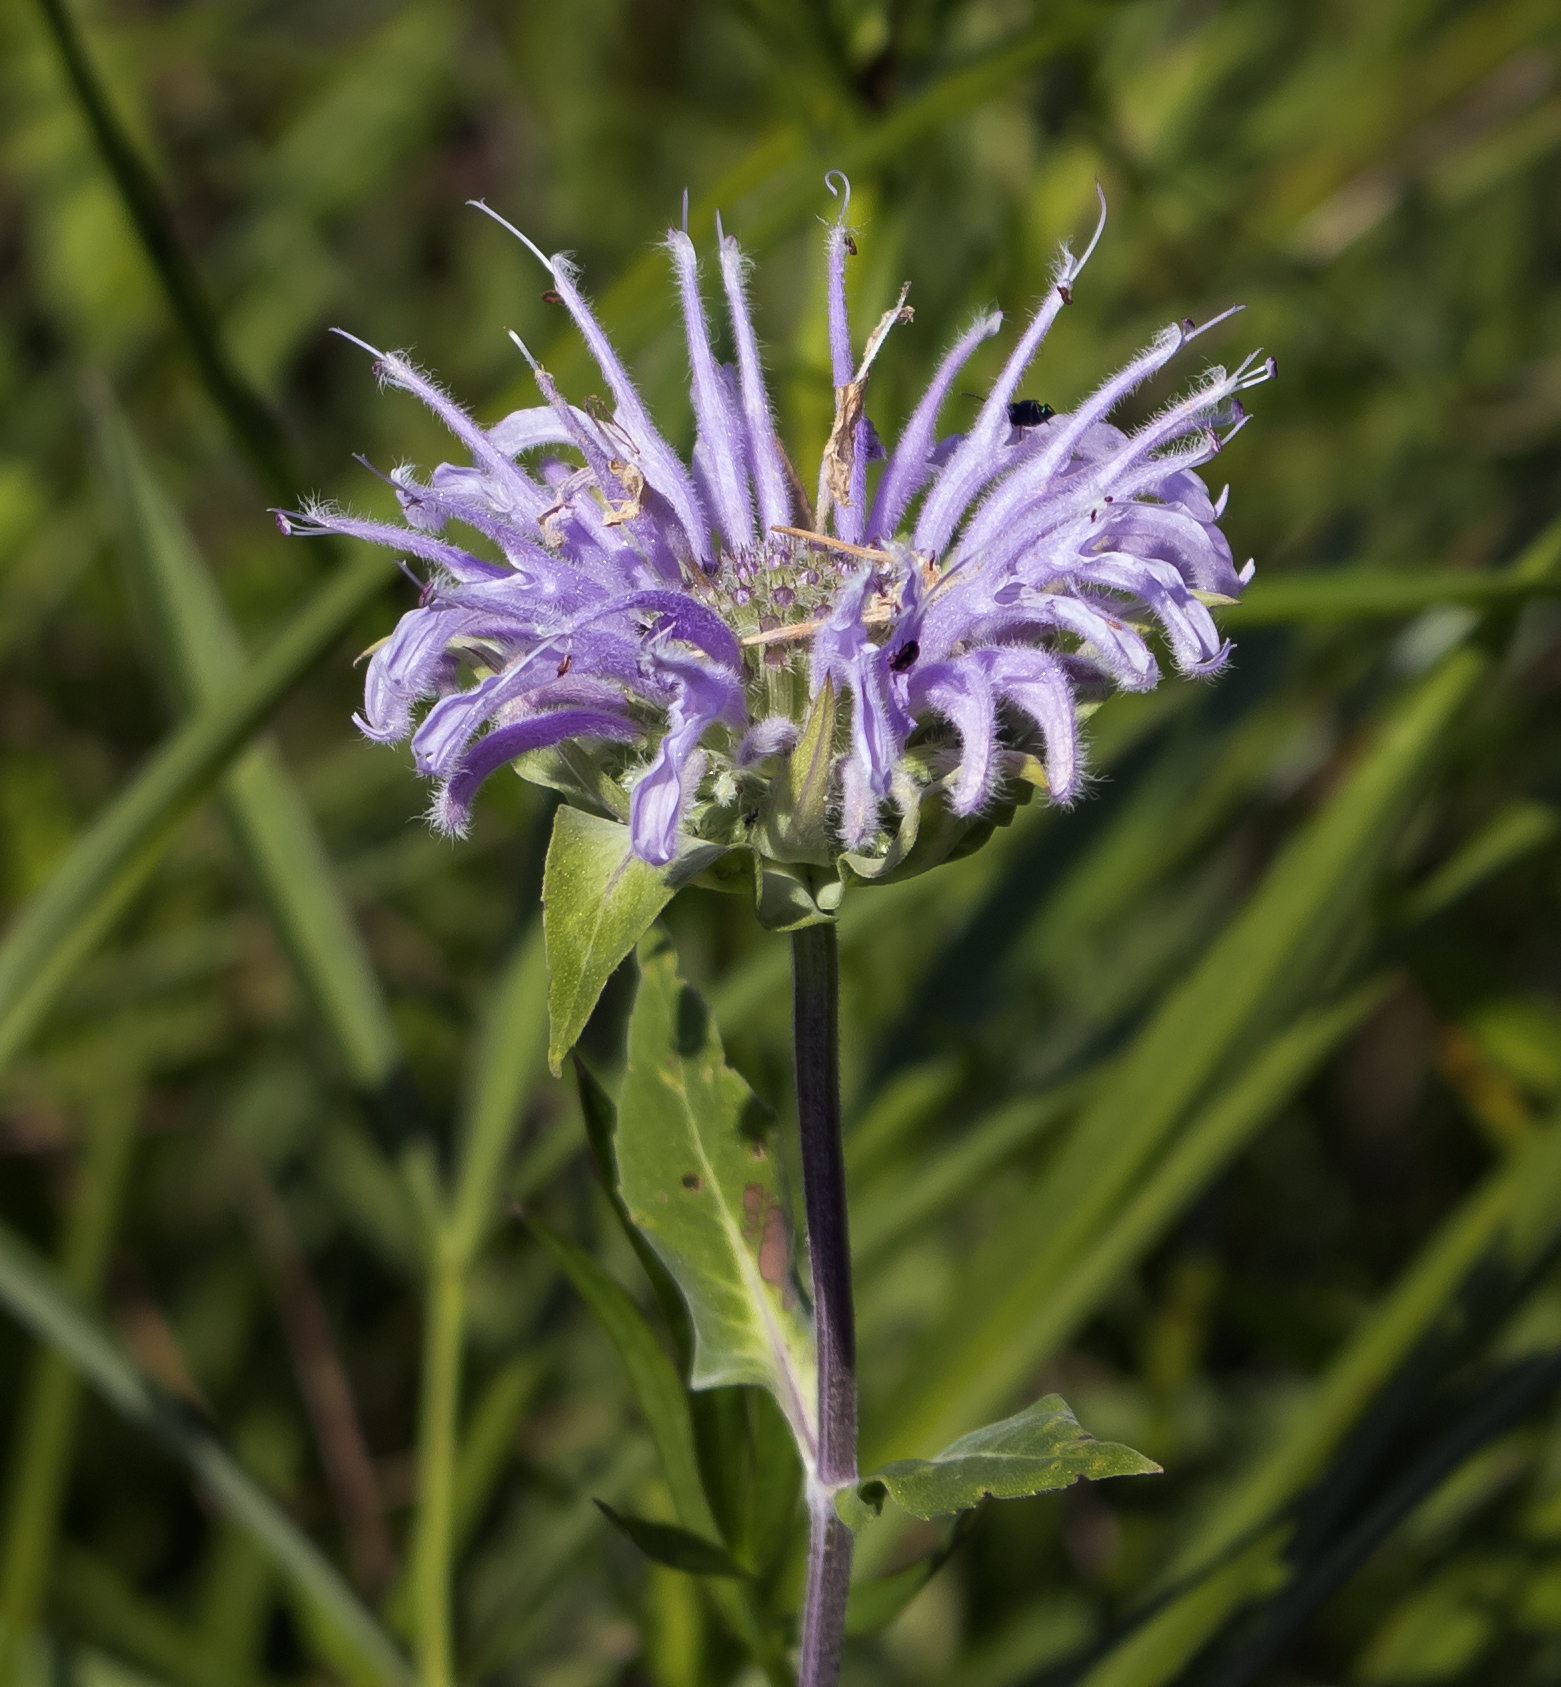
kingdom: Plantae
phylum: Tracheophyta
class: Magnoliopsida
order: Lamiales
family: Lamiaceae
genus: Monarda
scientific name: Monarda fistulosa
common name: Purple beebalm
